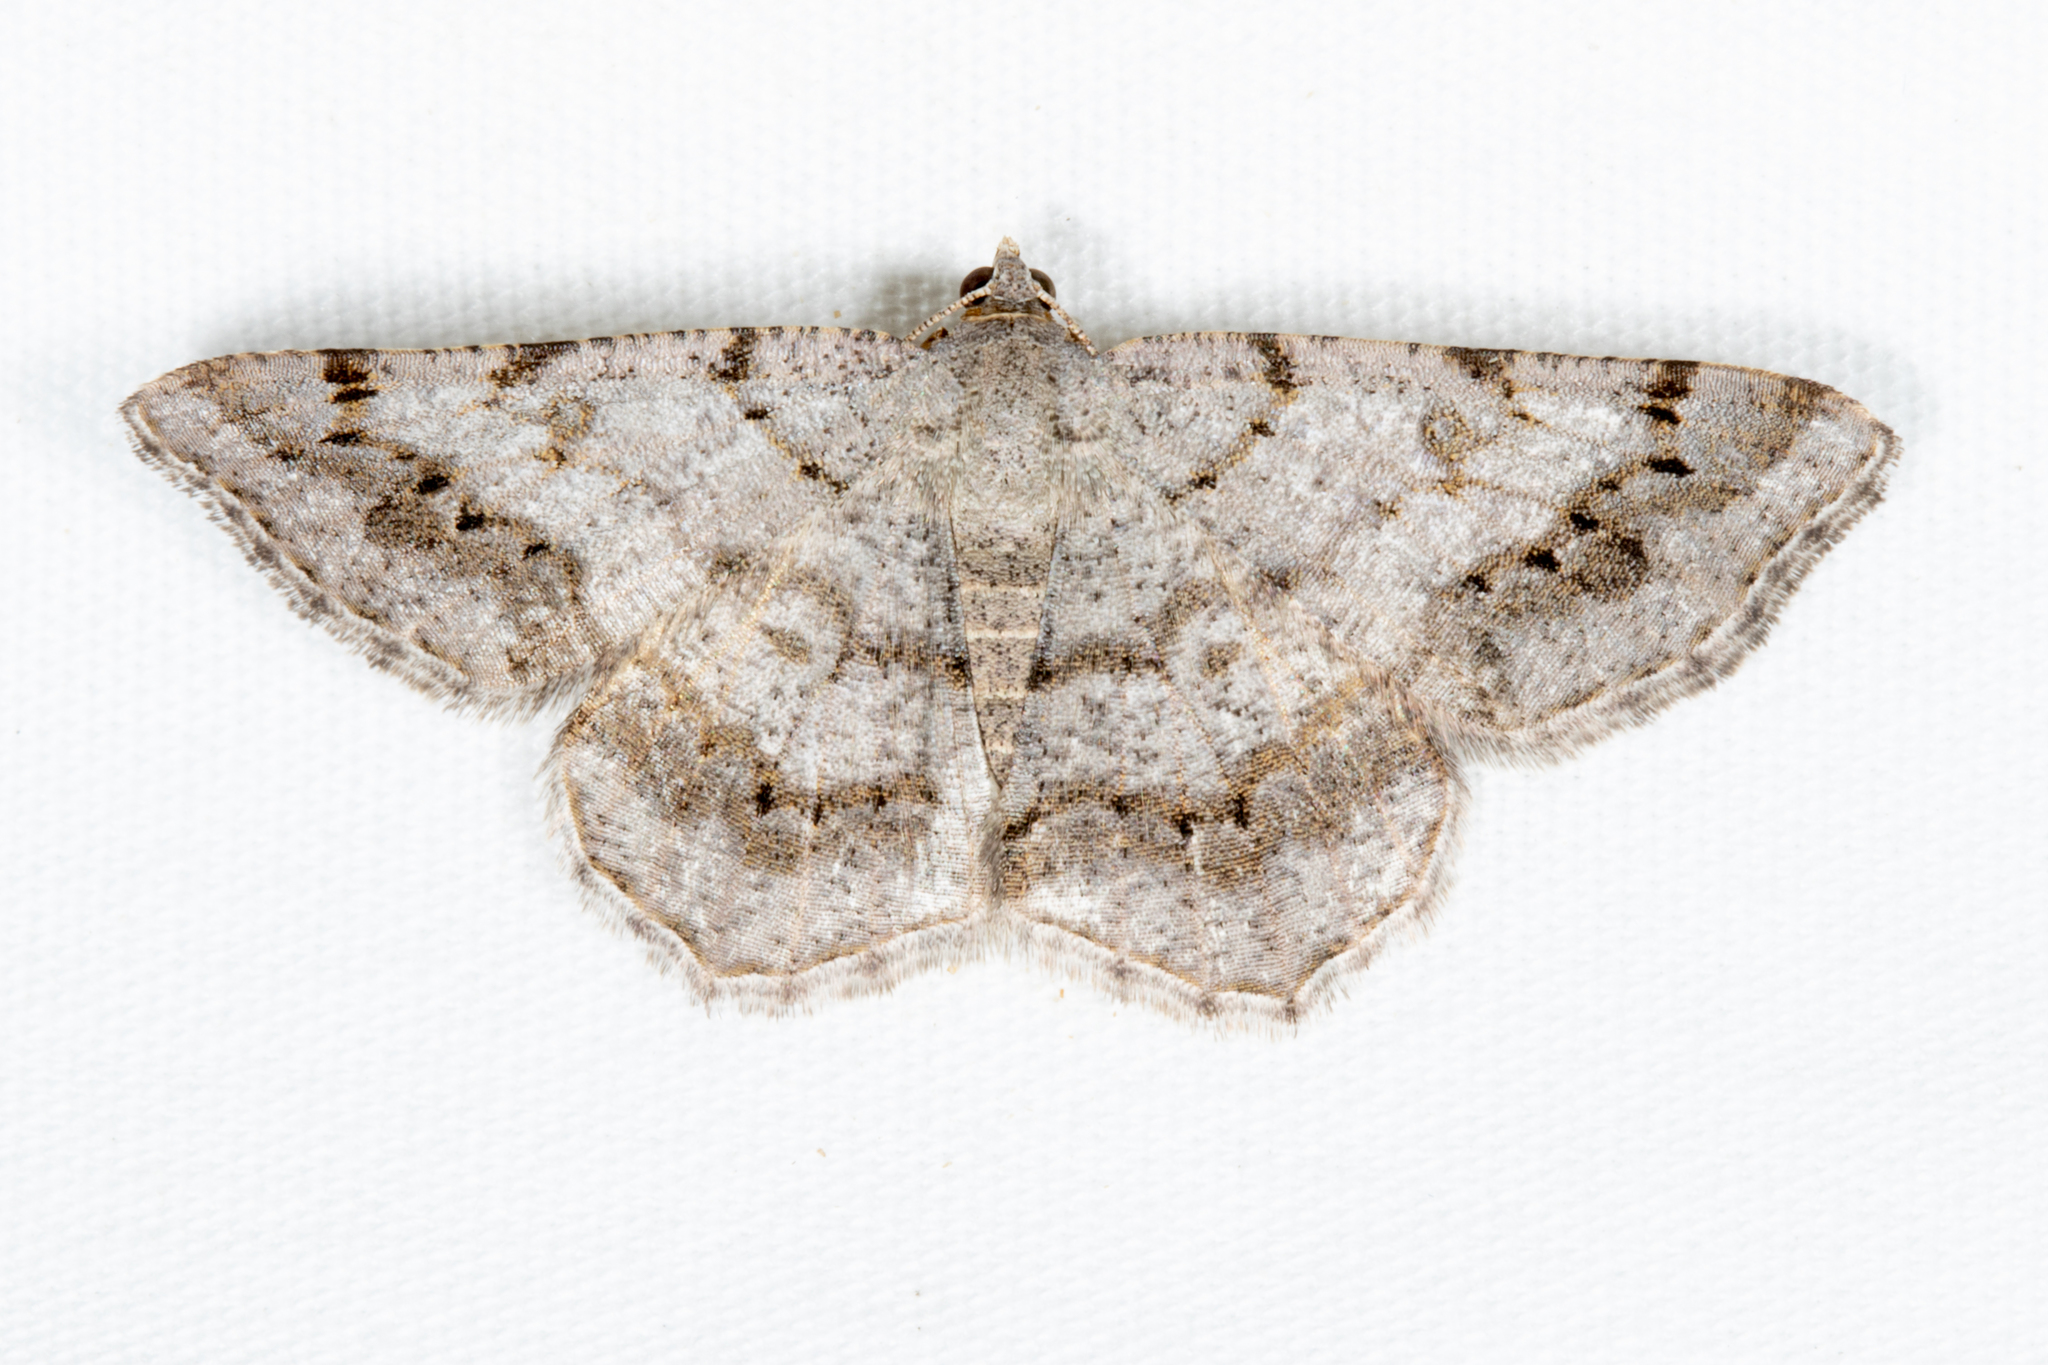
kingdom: Animalia
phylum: Arthropoda
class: Insecta
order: Lepidoptera
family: Geometridae
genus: Digrammia
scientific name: Digrammia ocellinata
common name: Faint-spotted angle
